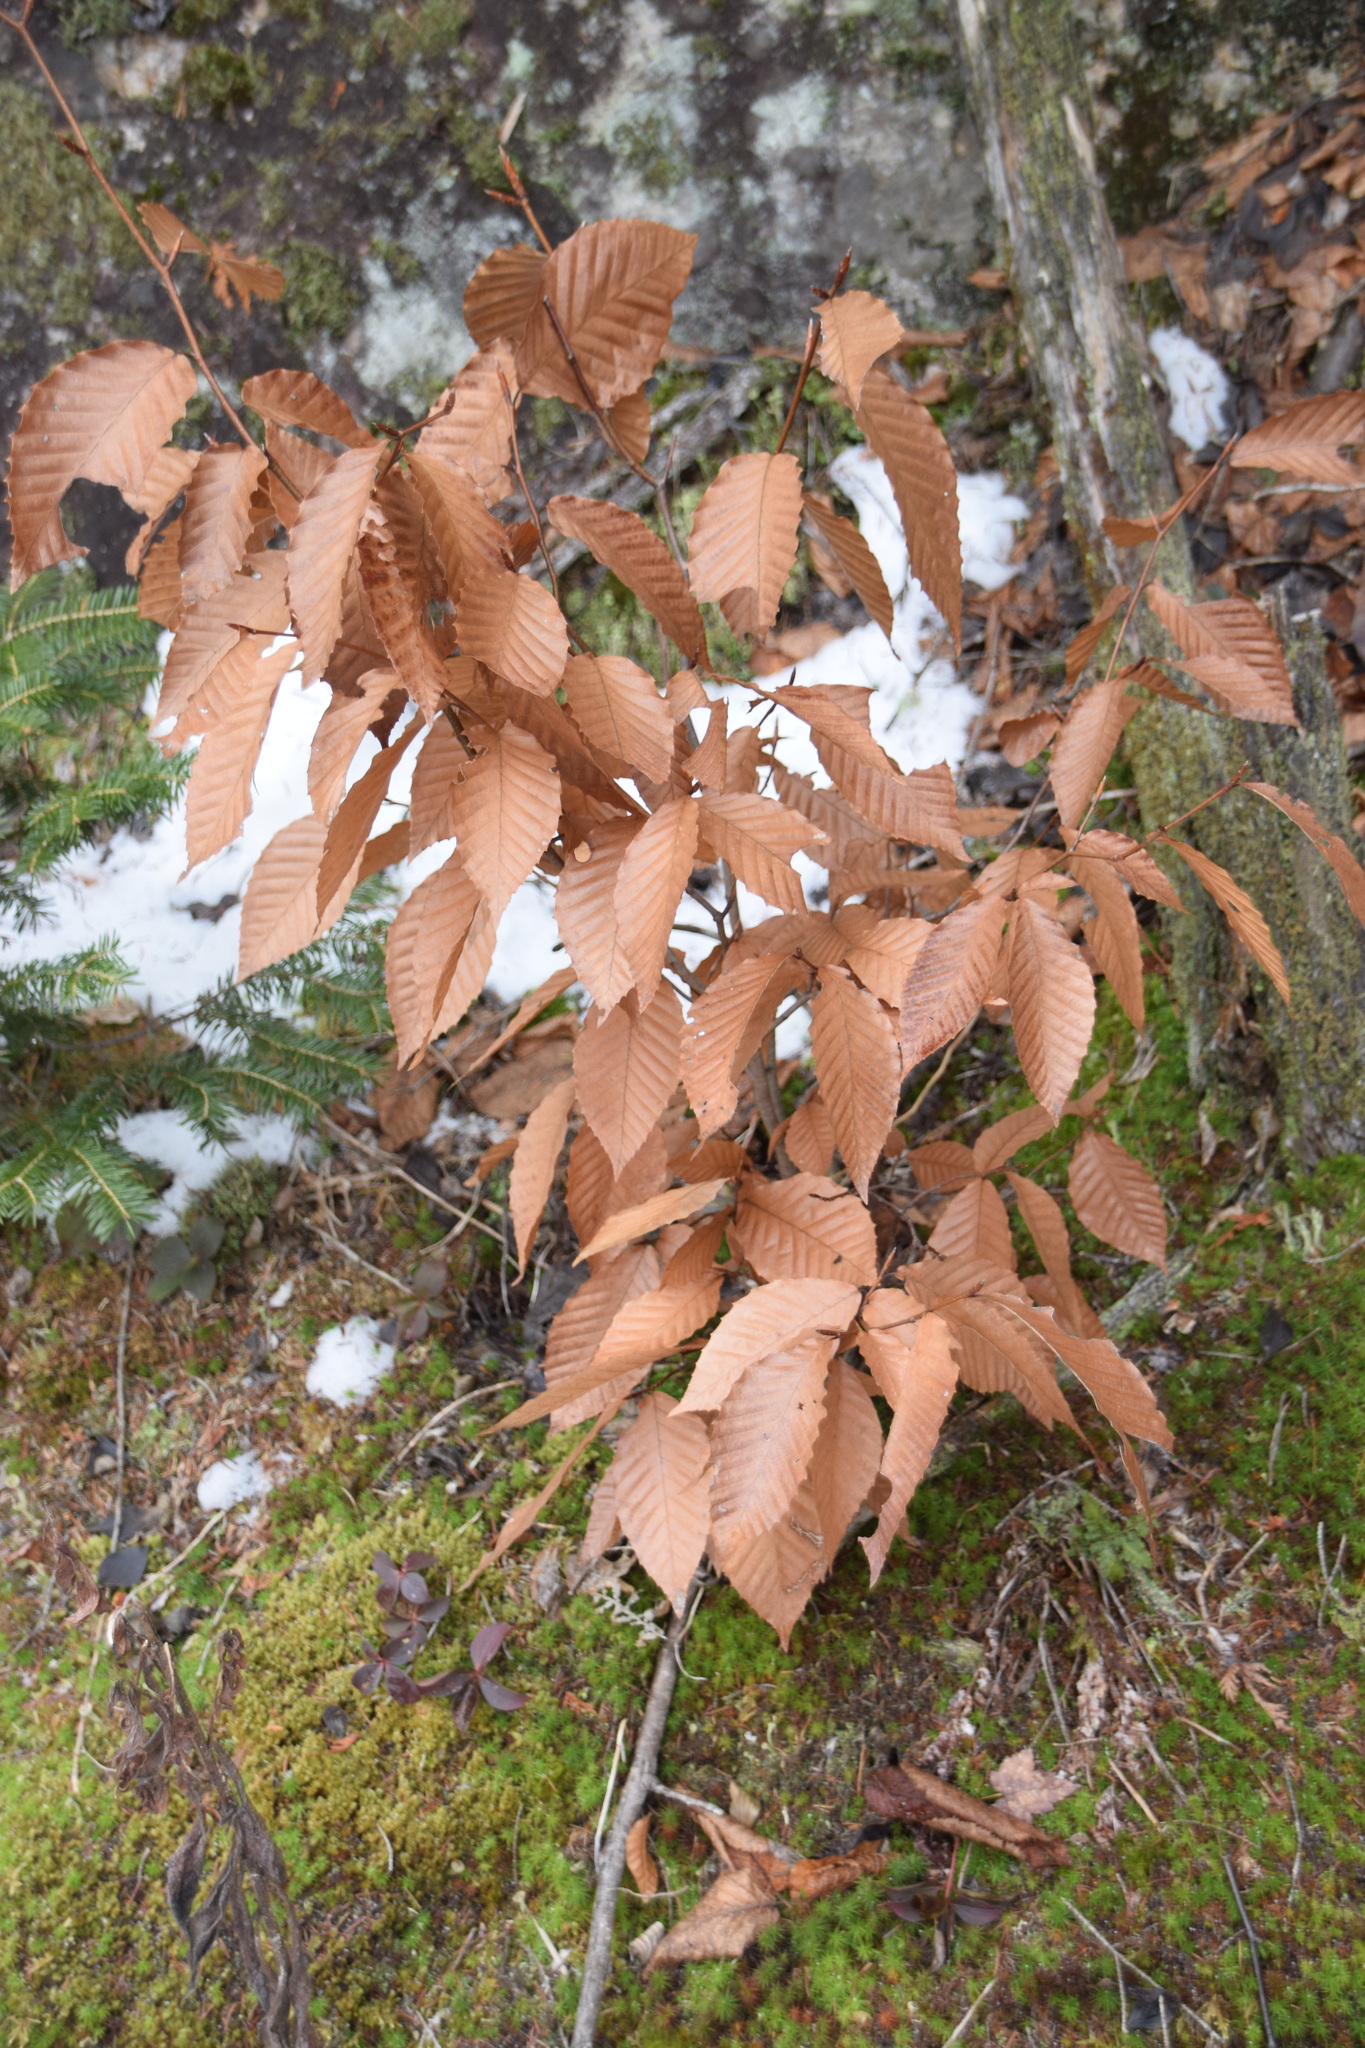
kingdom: Plantae
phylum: Tracheophyta
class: Magnoliopsida
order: Fagales
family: Fagaceae
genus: Fagus
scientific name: Fagus grandifolia
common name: American beech
